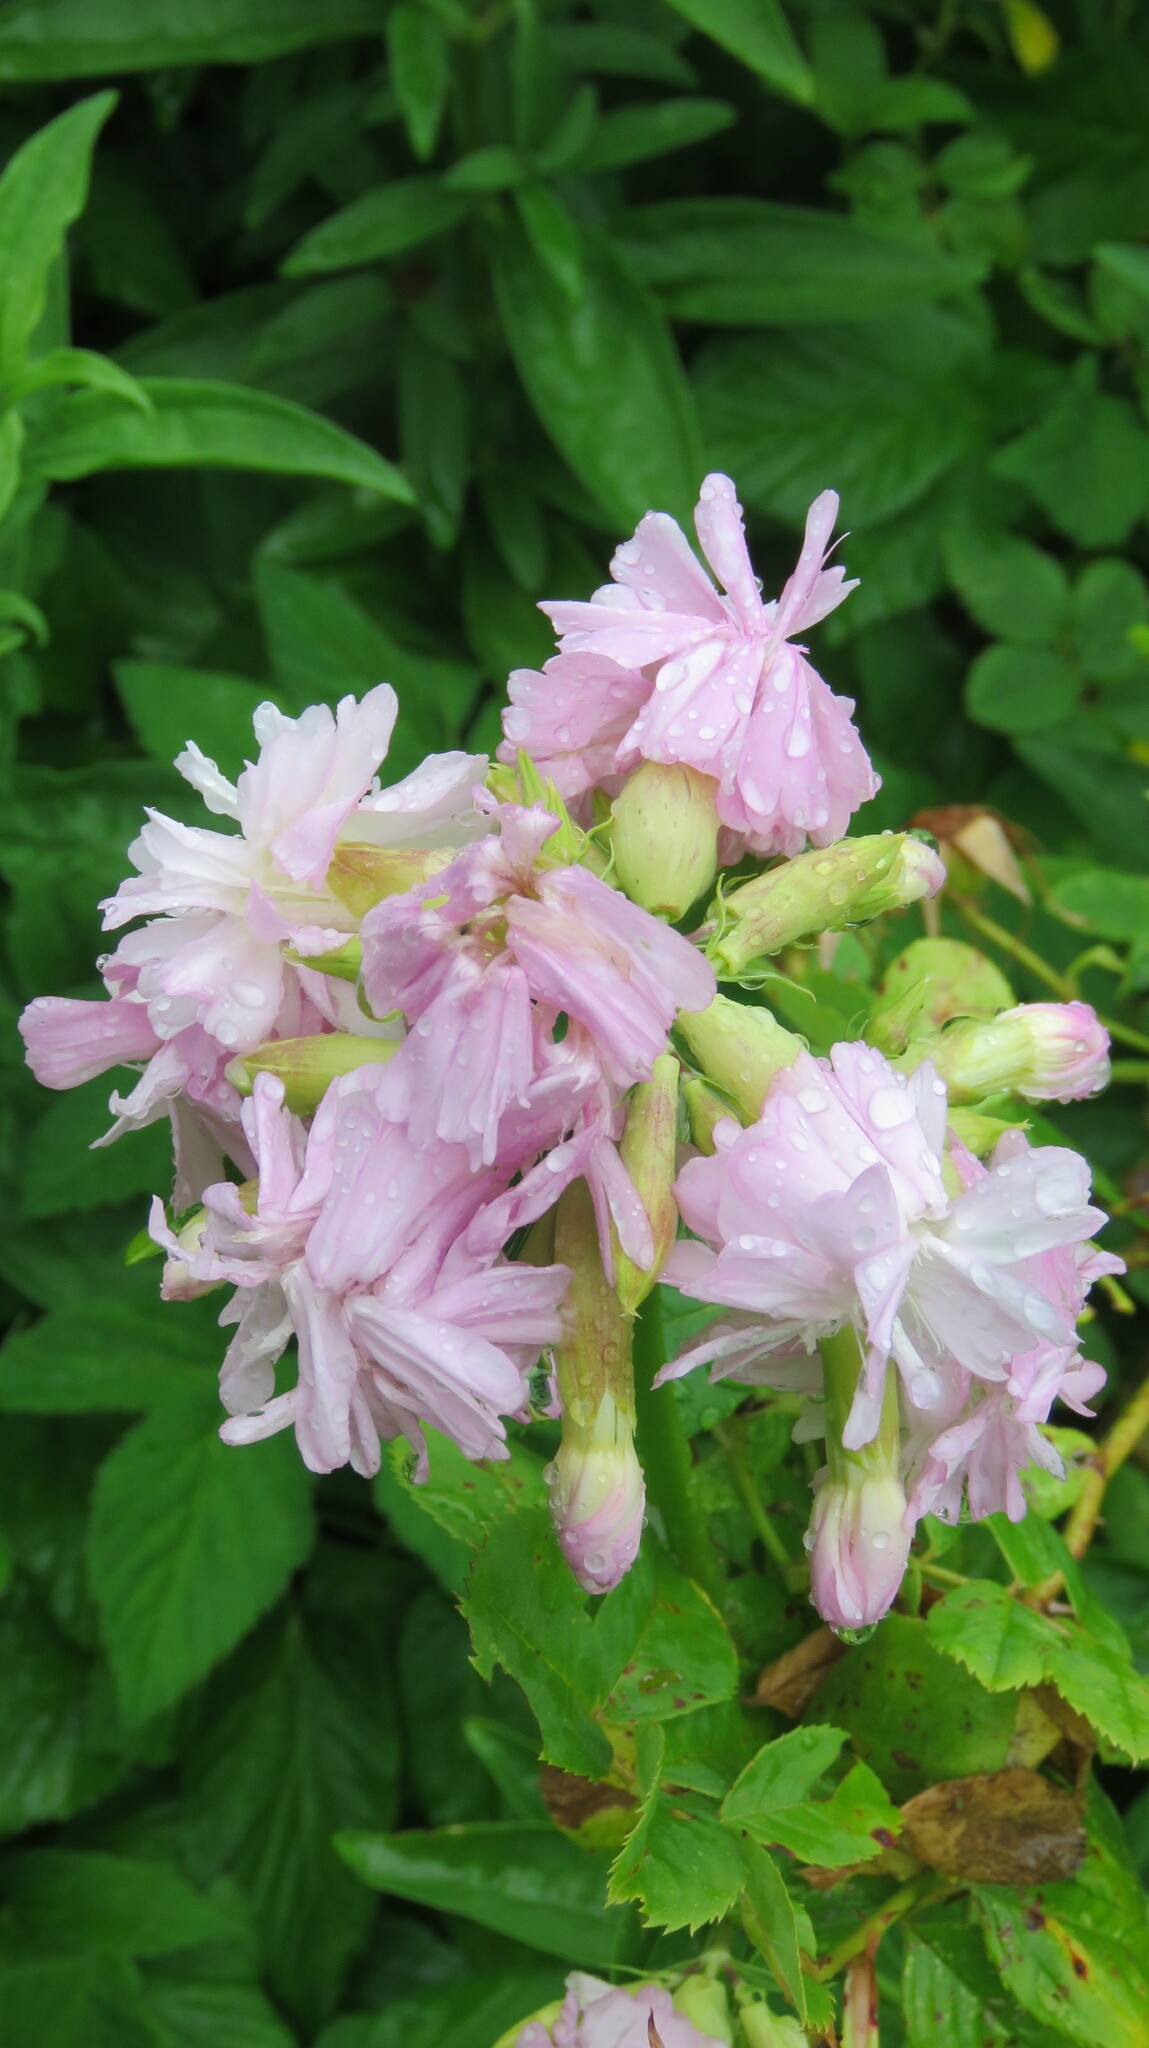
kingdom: Plantae
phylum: Tracheophyta
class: Magnoliopsida
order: Caryophyllales
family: Caryophyllaceae
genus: Saponaria
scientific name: Saponaria officinalis
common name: Soapwort
